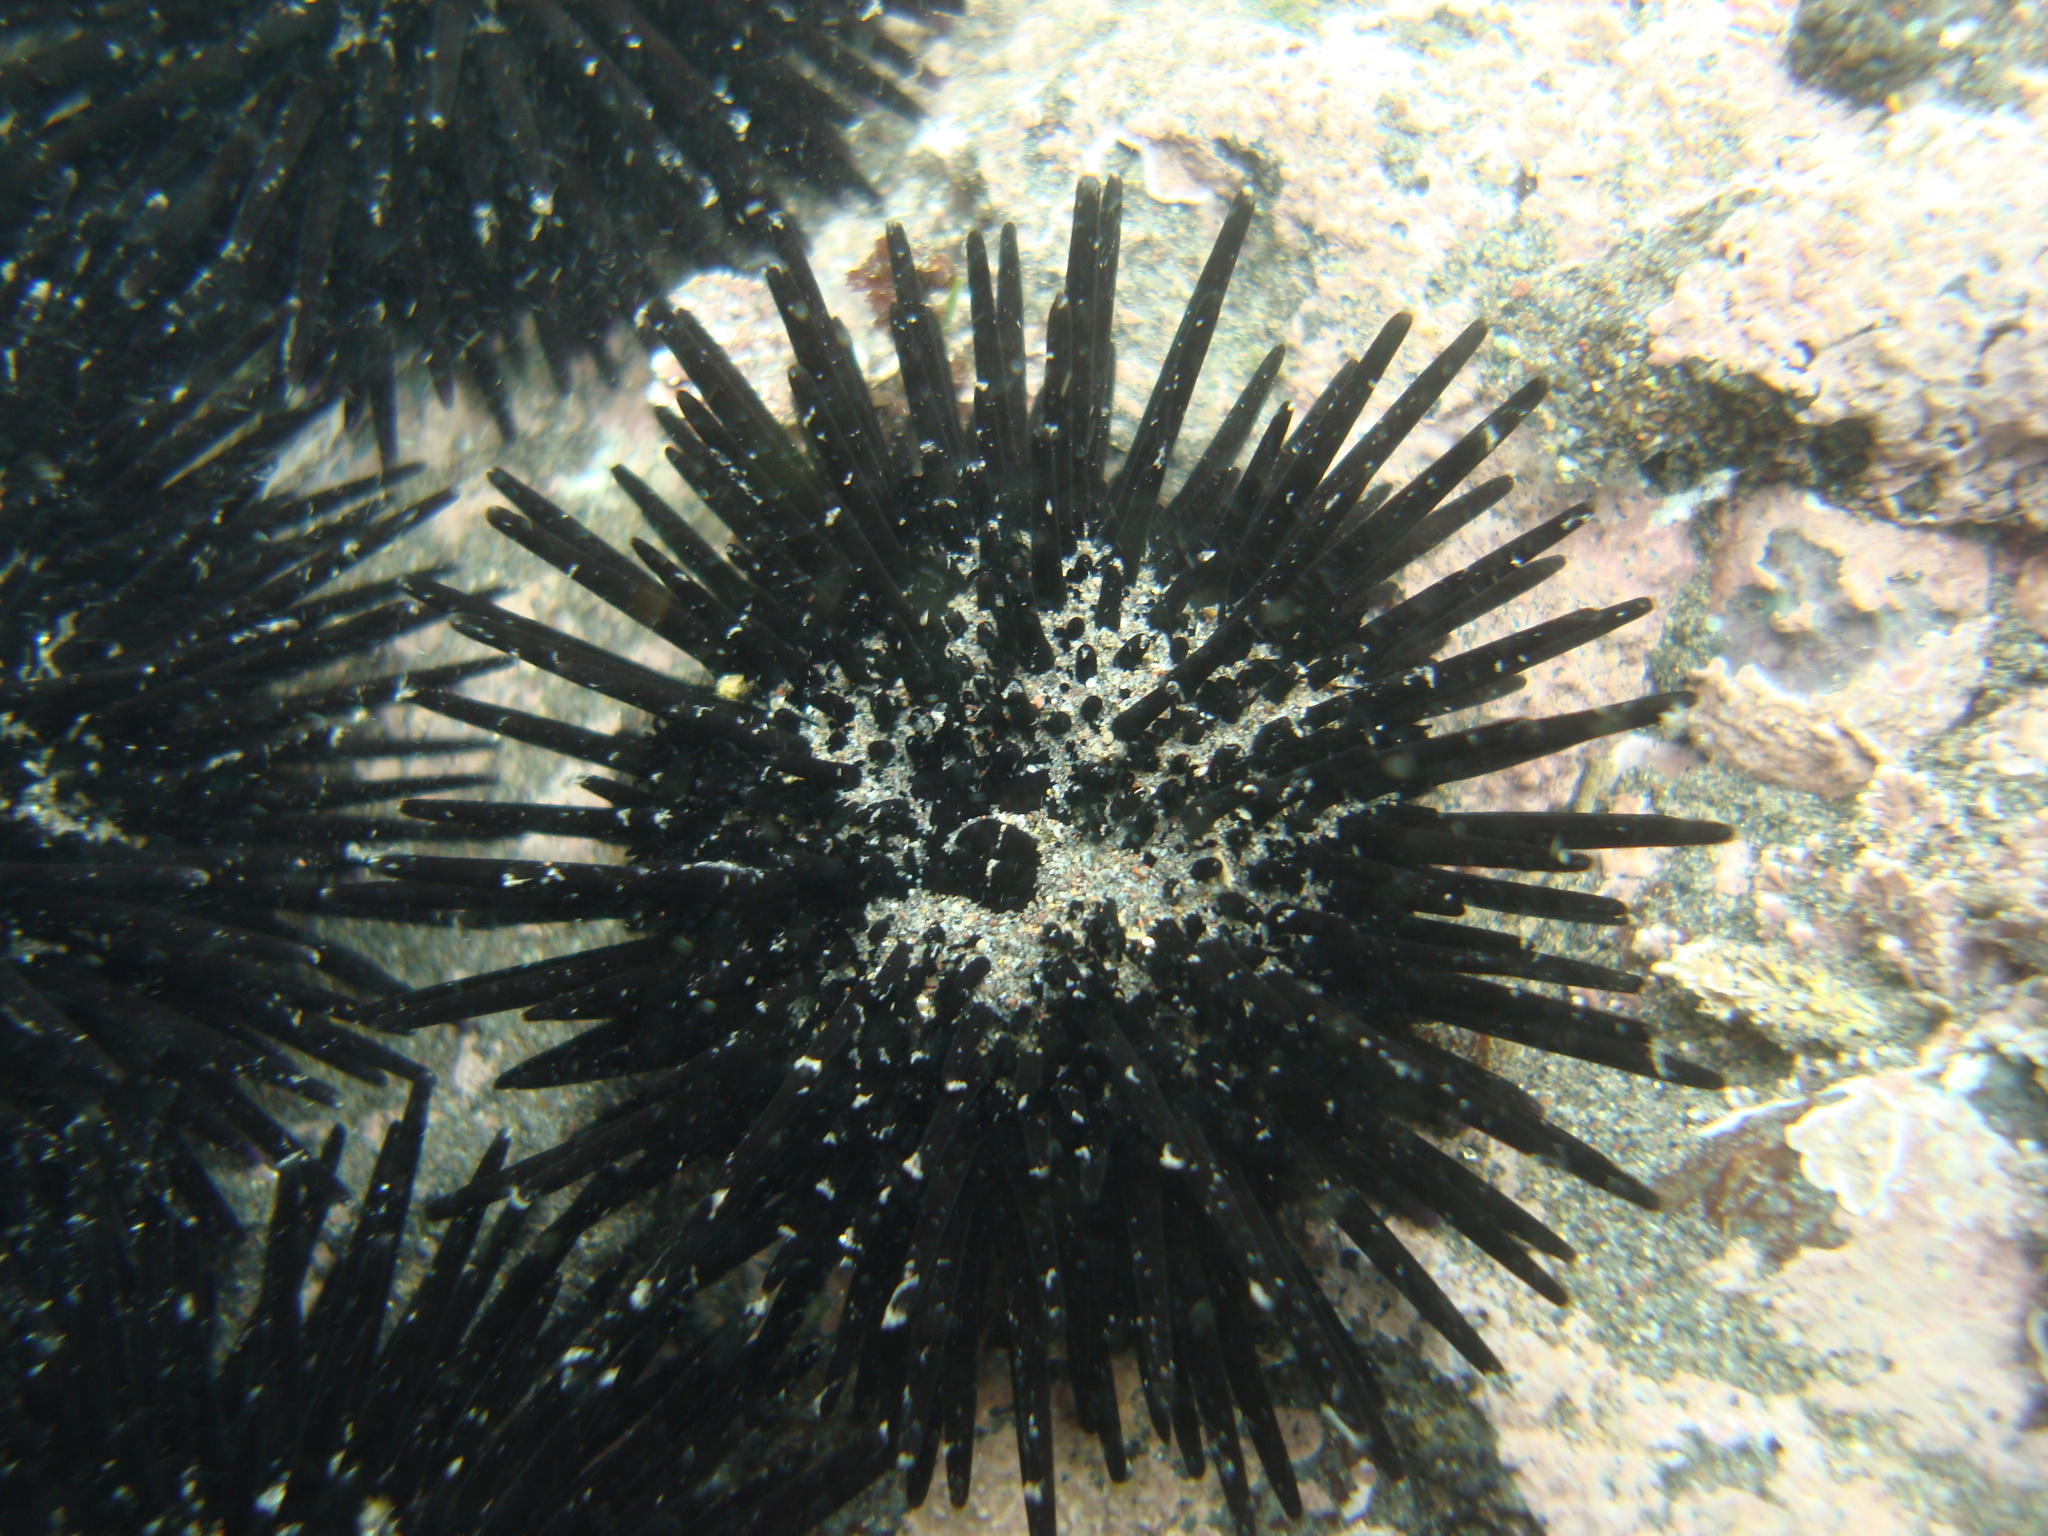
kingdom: Animalia
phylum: Echinodermata
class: Echinoidea
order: Arbacioida
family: Arbaciidae
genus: Tetrapygus
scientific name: Tetrapygus niger
